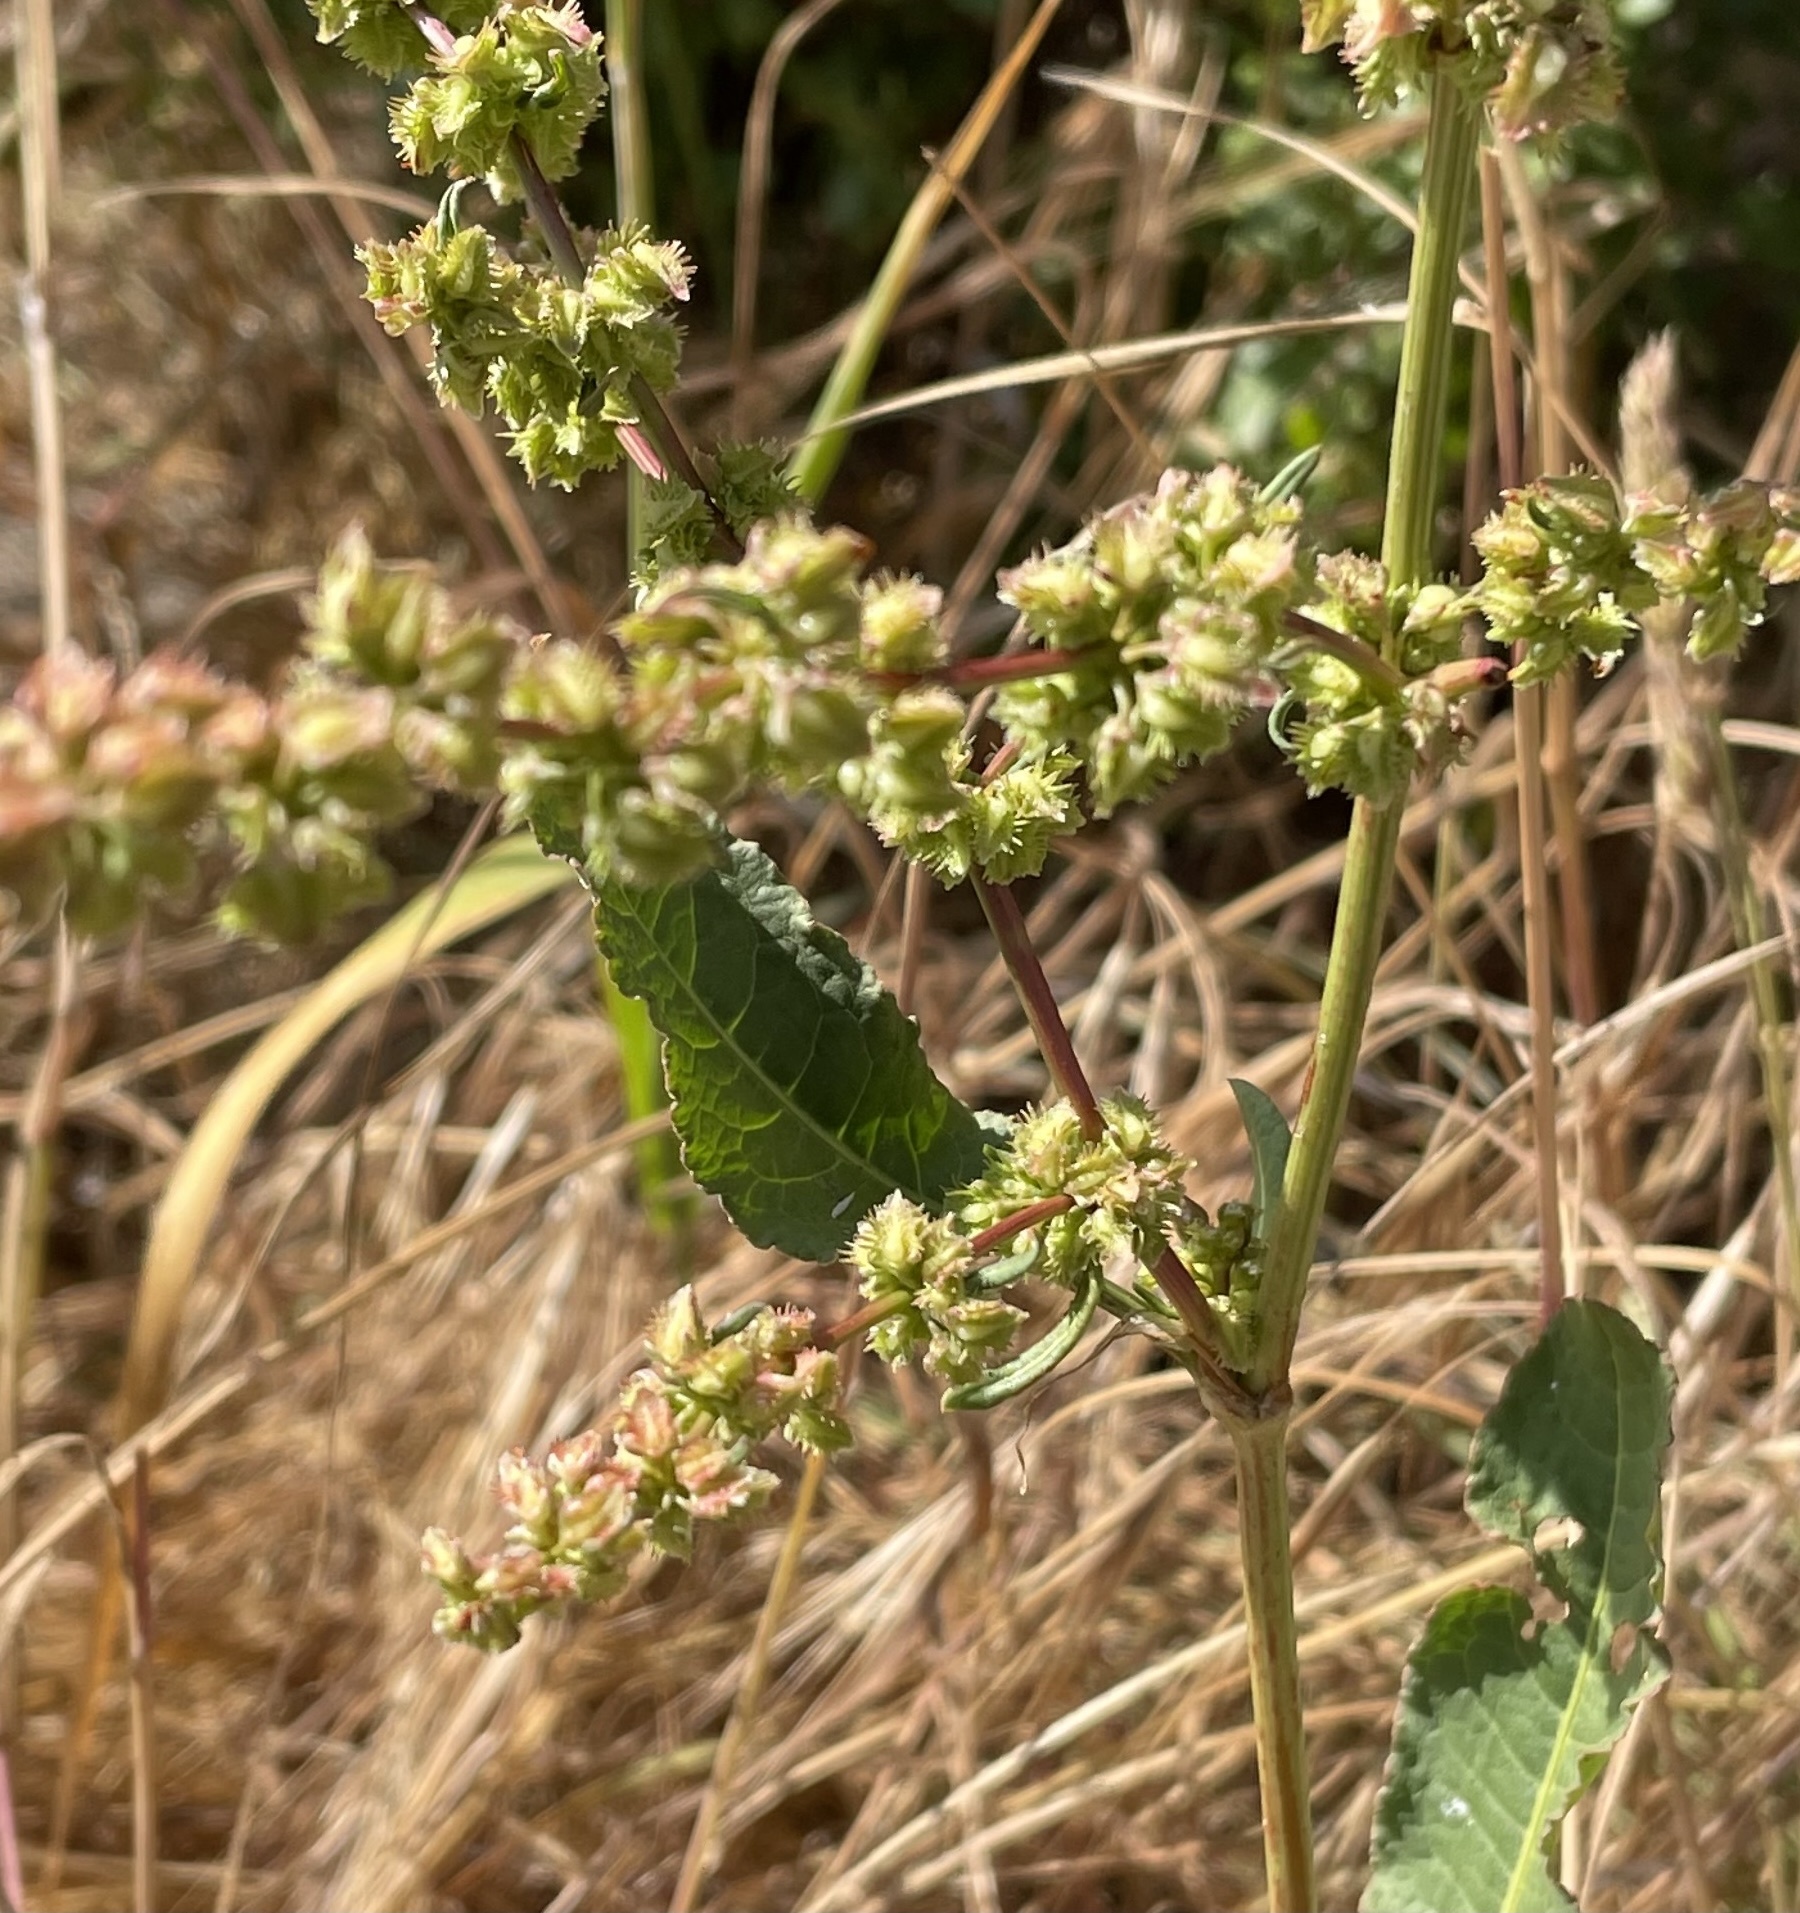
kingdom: Plantae
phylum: Tracheophyta
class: Magnoliopsida
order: Caryophyllales
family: Polygonaceae
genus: Rumex
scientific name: Rumex pulcher
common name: Fiddle dock
